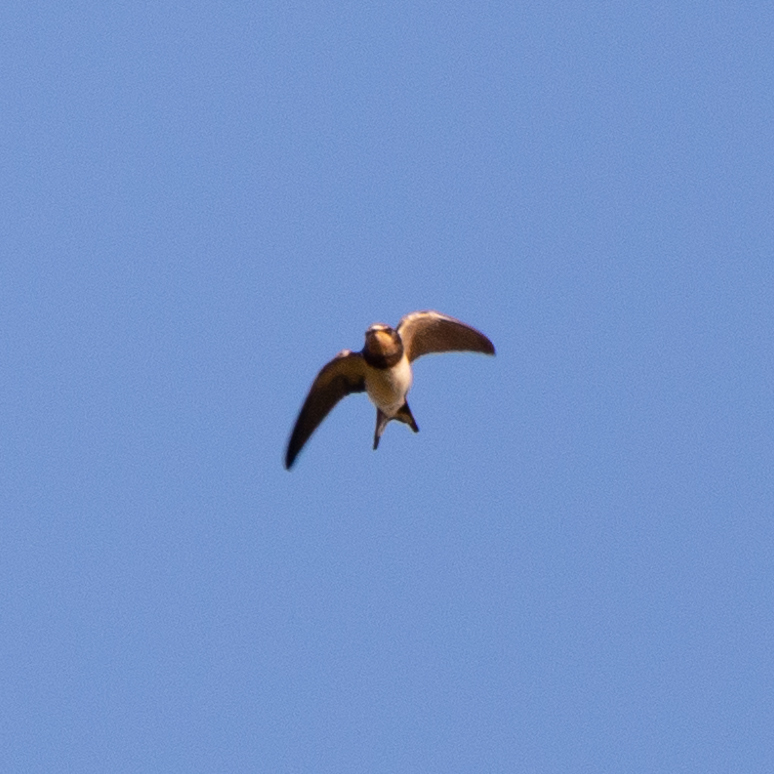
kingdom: Animalia
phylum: Chordata
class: Aves
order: Passeriformes
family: Hirundinidae
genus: Hirundo
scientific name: Hirundo rustica
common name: Barn swallow
